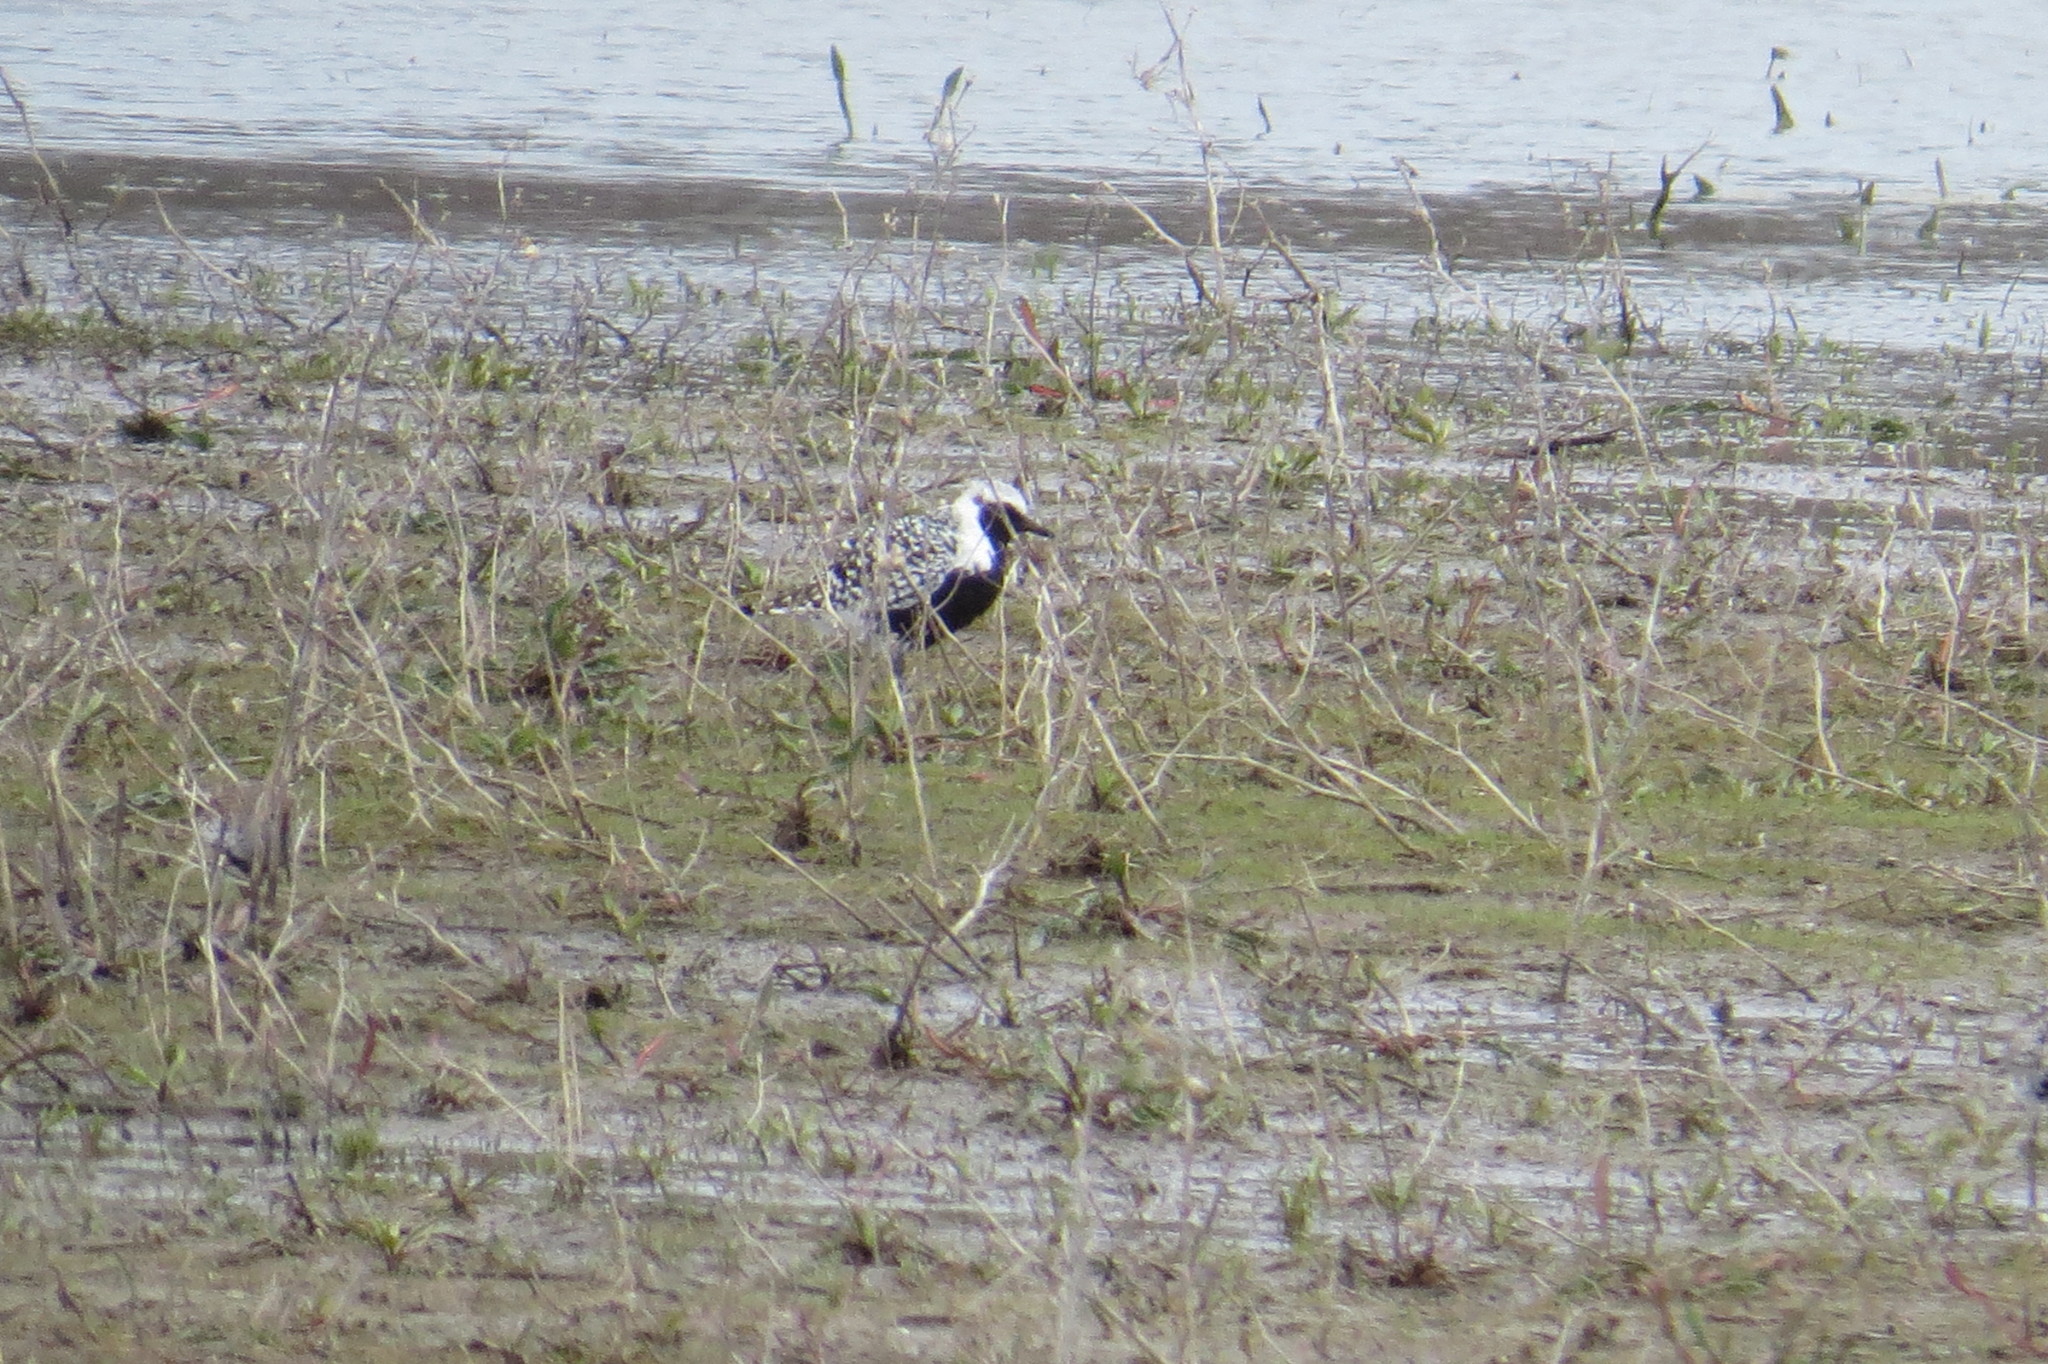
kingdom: Animalia
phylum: Chordata
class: Aves
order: Charadriiformes
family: Charadriidae
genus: Pluvialis
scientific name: Pluvialis squatarola
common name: Grey plover
